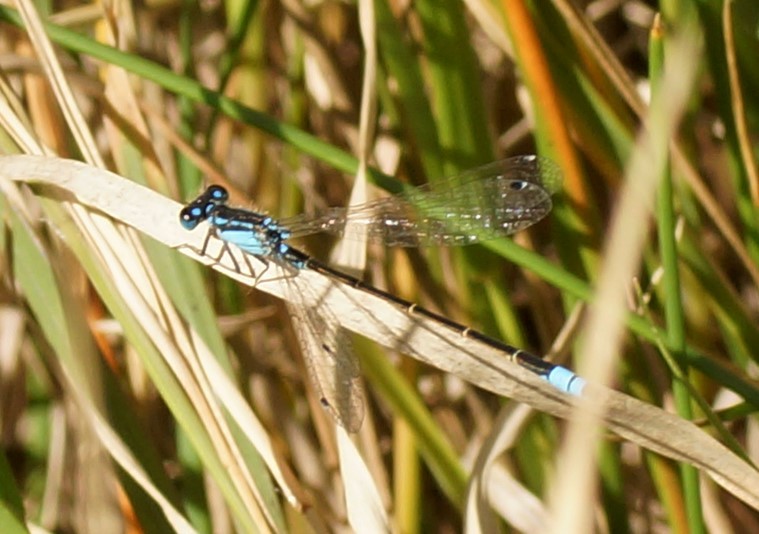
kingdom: Animalia
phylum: Arthropoda
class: Insecta
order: Odonata
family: Coenagrionidae
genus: Ischnura
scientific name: Ischnura heterosticta
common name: Common bluetail
